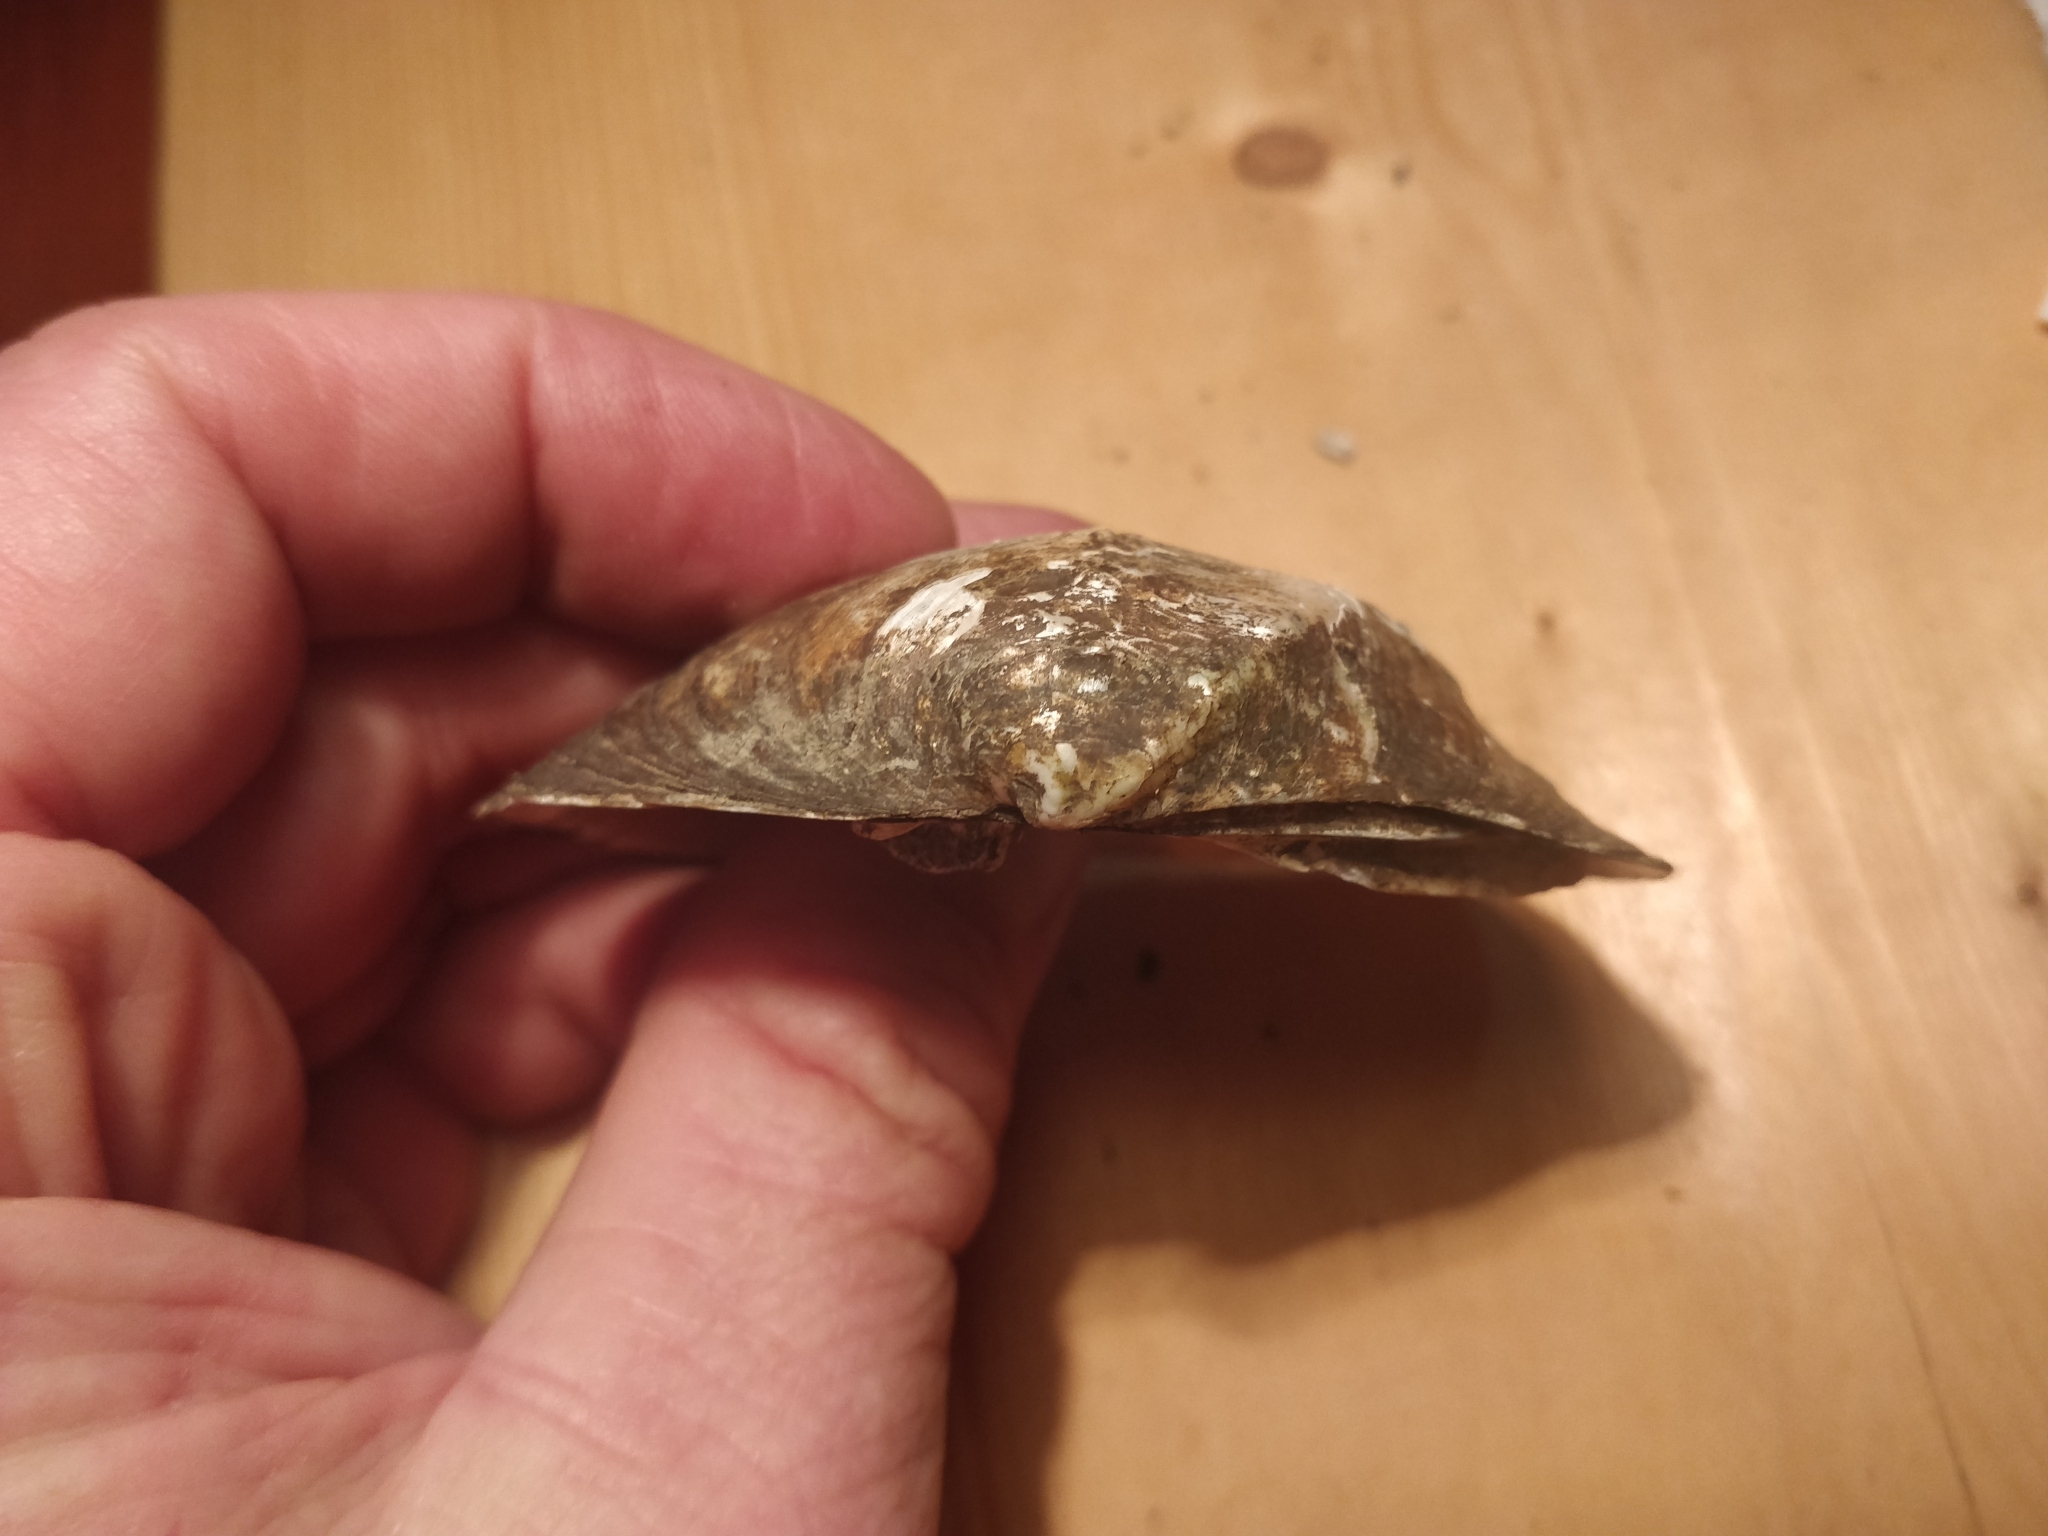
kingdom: Animalia
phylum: Mollusca
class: Bivalvia
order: Unionida
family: Unionidae
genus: Quadrula
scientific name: Quadrula quadrula
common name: Mapleleaf
